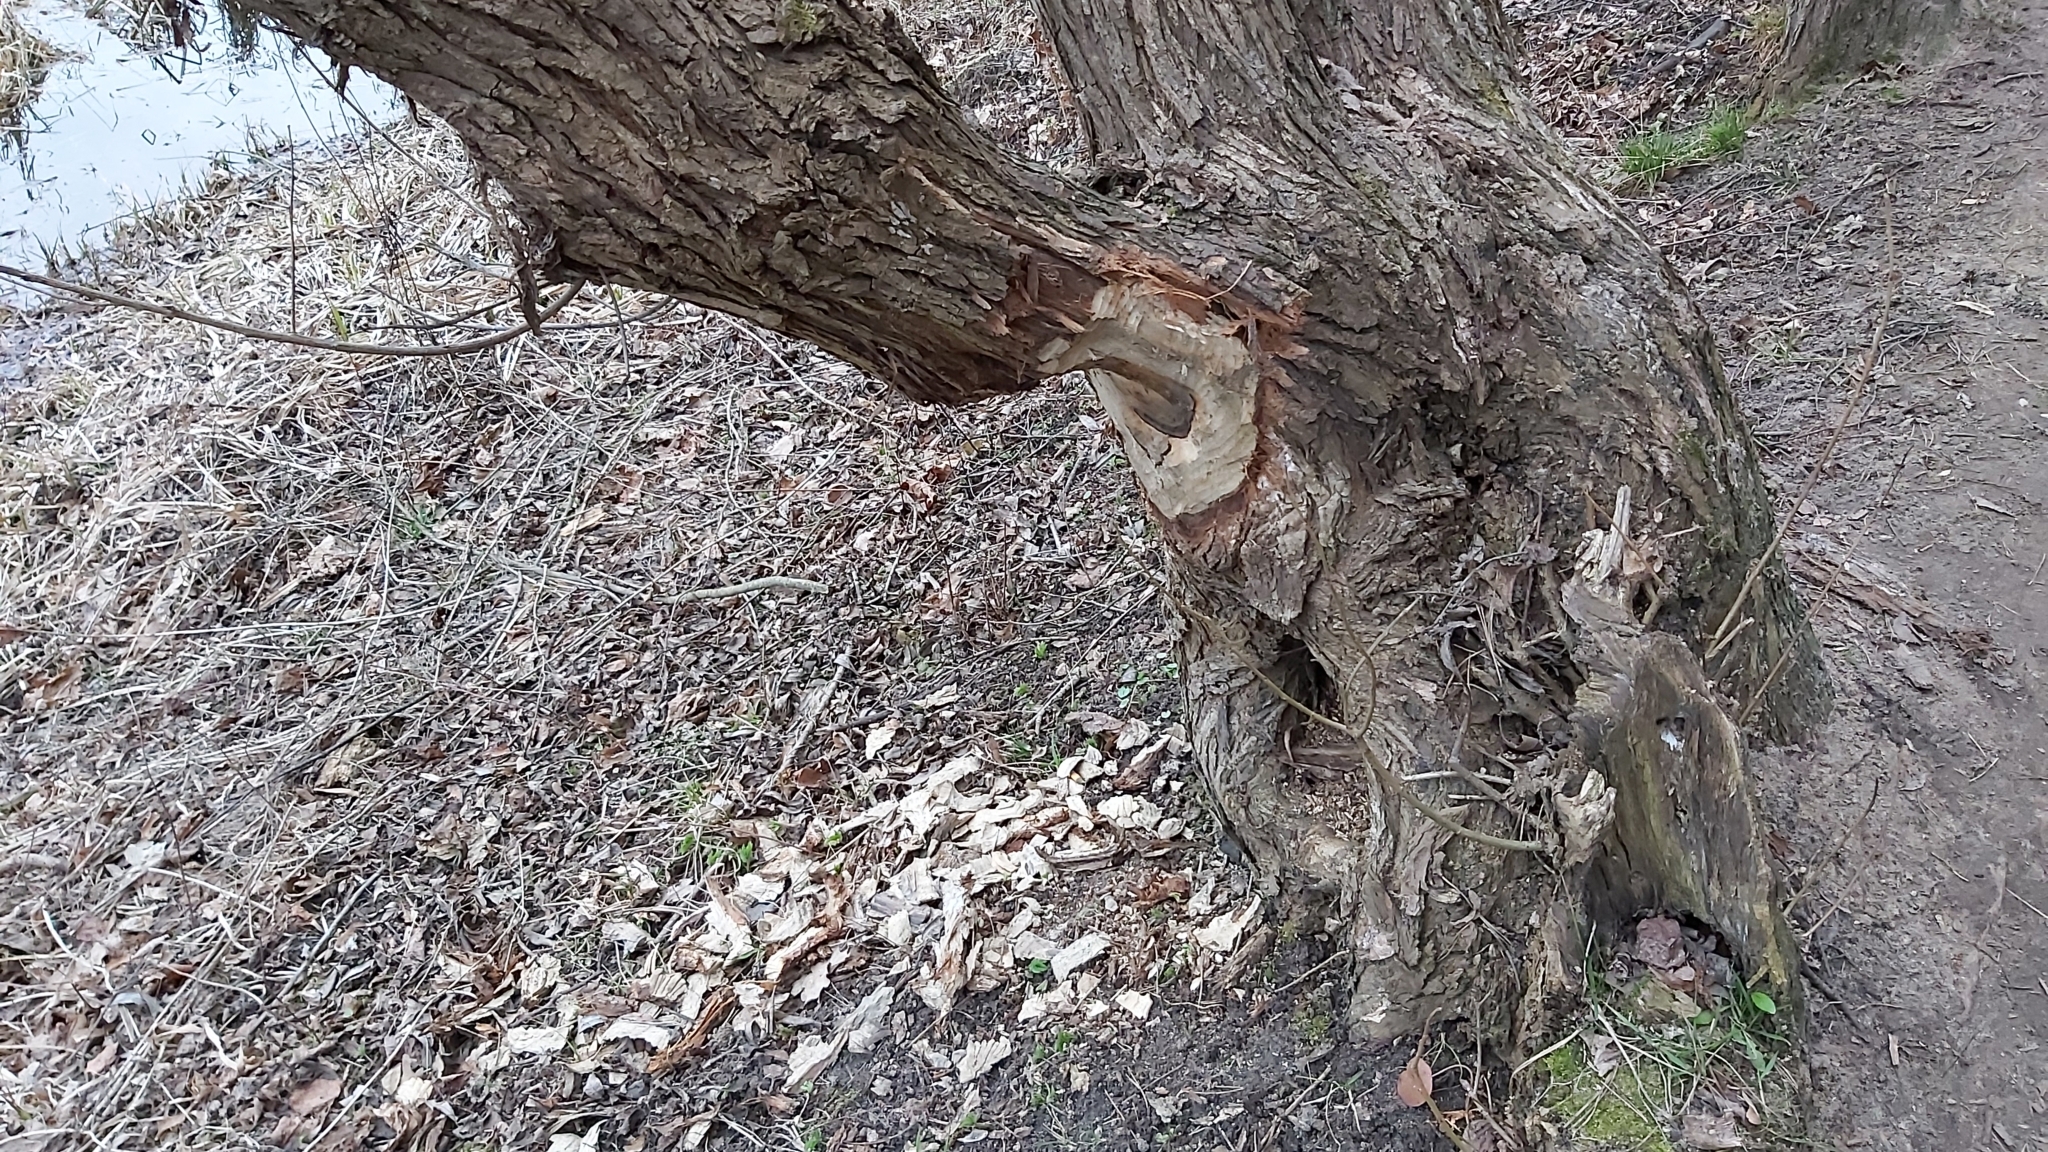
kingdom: Animalia
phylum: Chordata
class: Mammalia
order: Rodentia
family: Castoridae
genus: Castor
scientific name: Castor fiber
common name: Eurasian beaver
